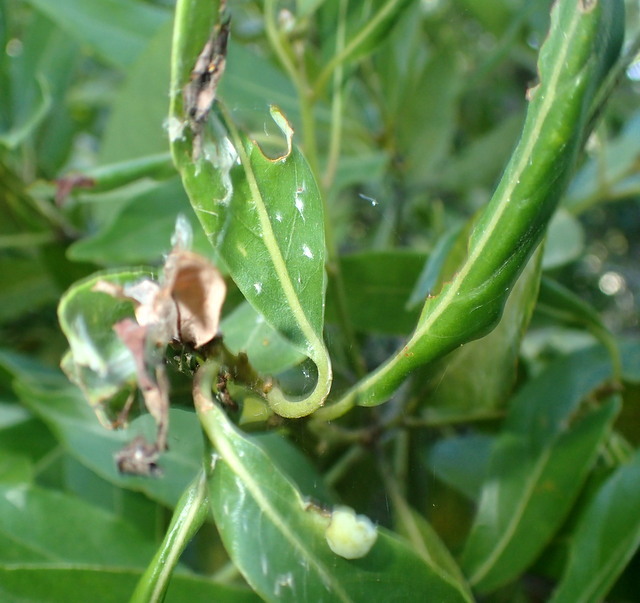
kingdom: Animalia
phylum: Arthropoda
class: Insecta
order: Hemiptera
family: Triozidae
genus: Trioza
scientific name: Trioza magnoliae
